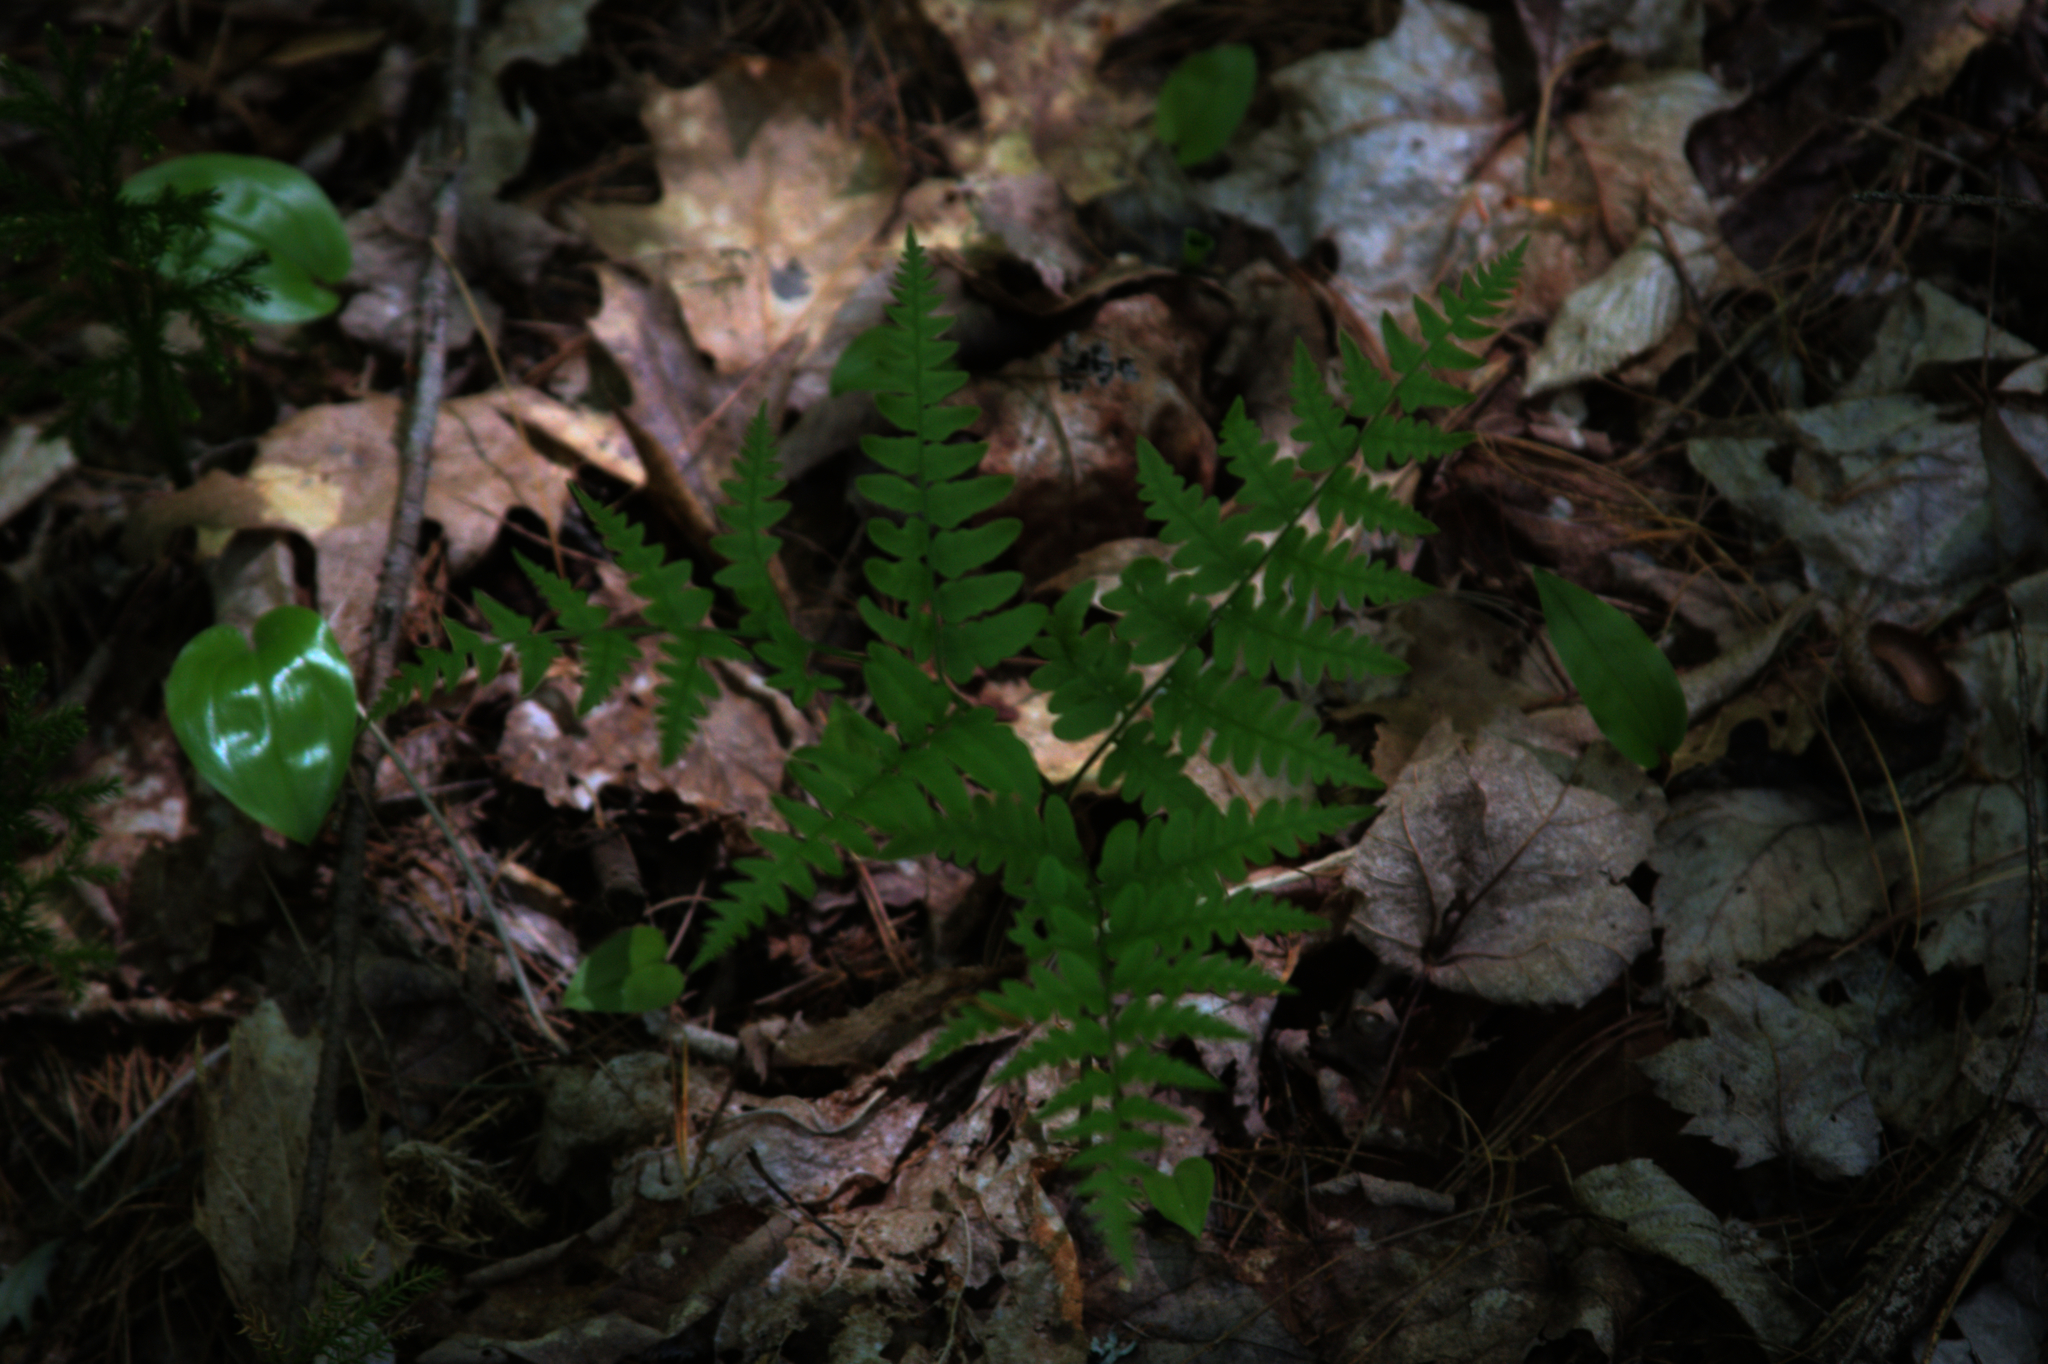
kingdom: Plantae
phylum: Tracheophyta
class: Polypodiopsida
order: Polypodiales
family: Dryopteridaceae
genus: Dryopteris
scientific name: Dryopteris marginalis
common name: Marginal wood fern
